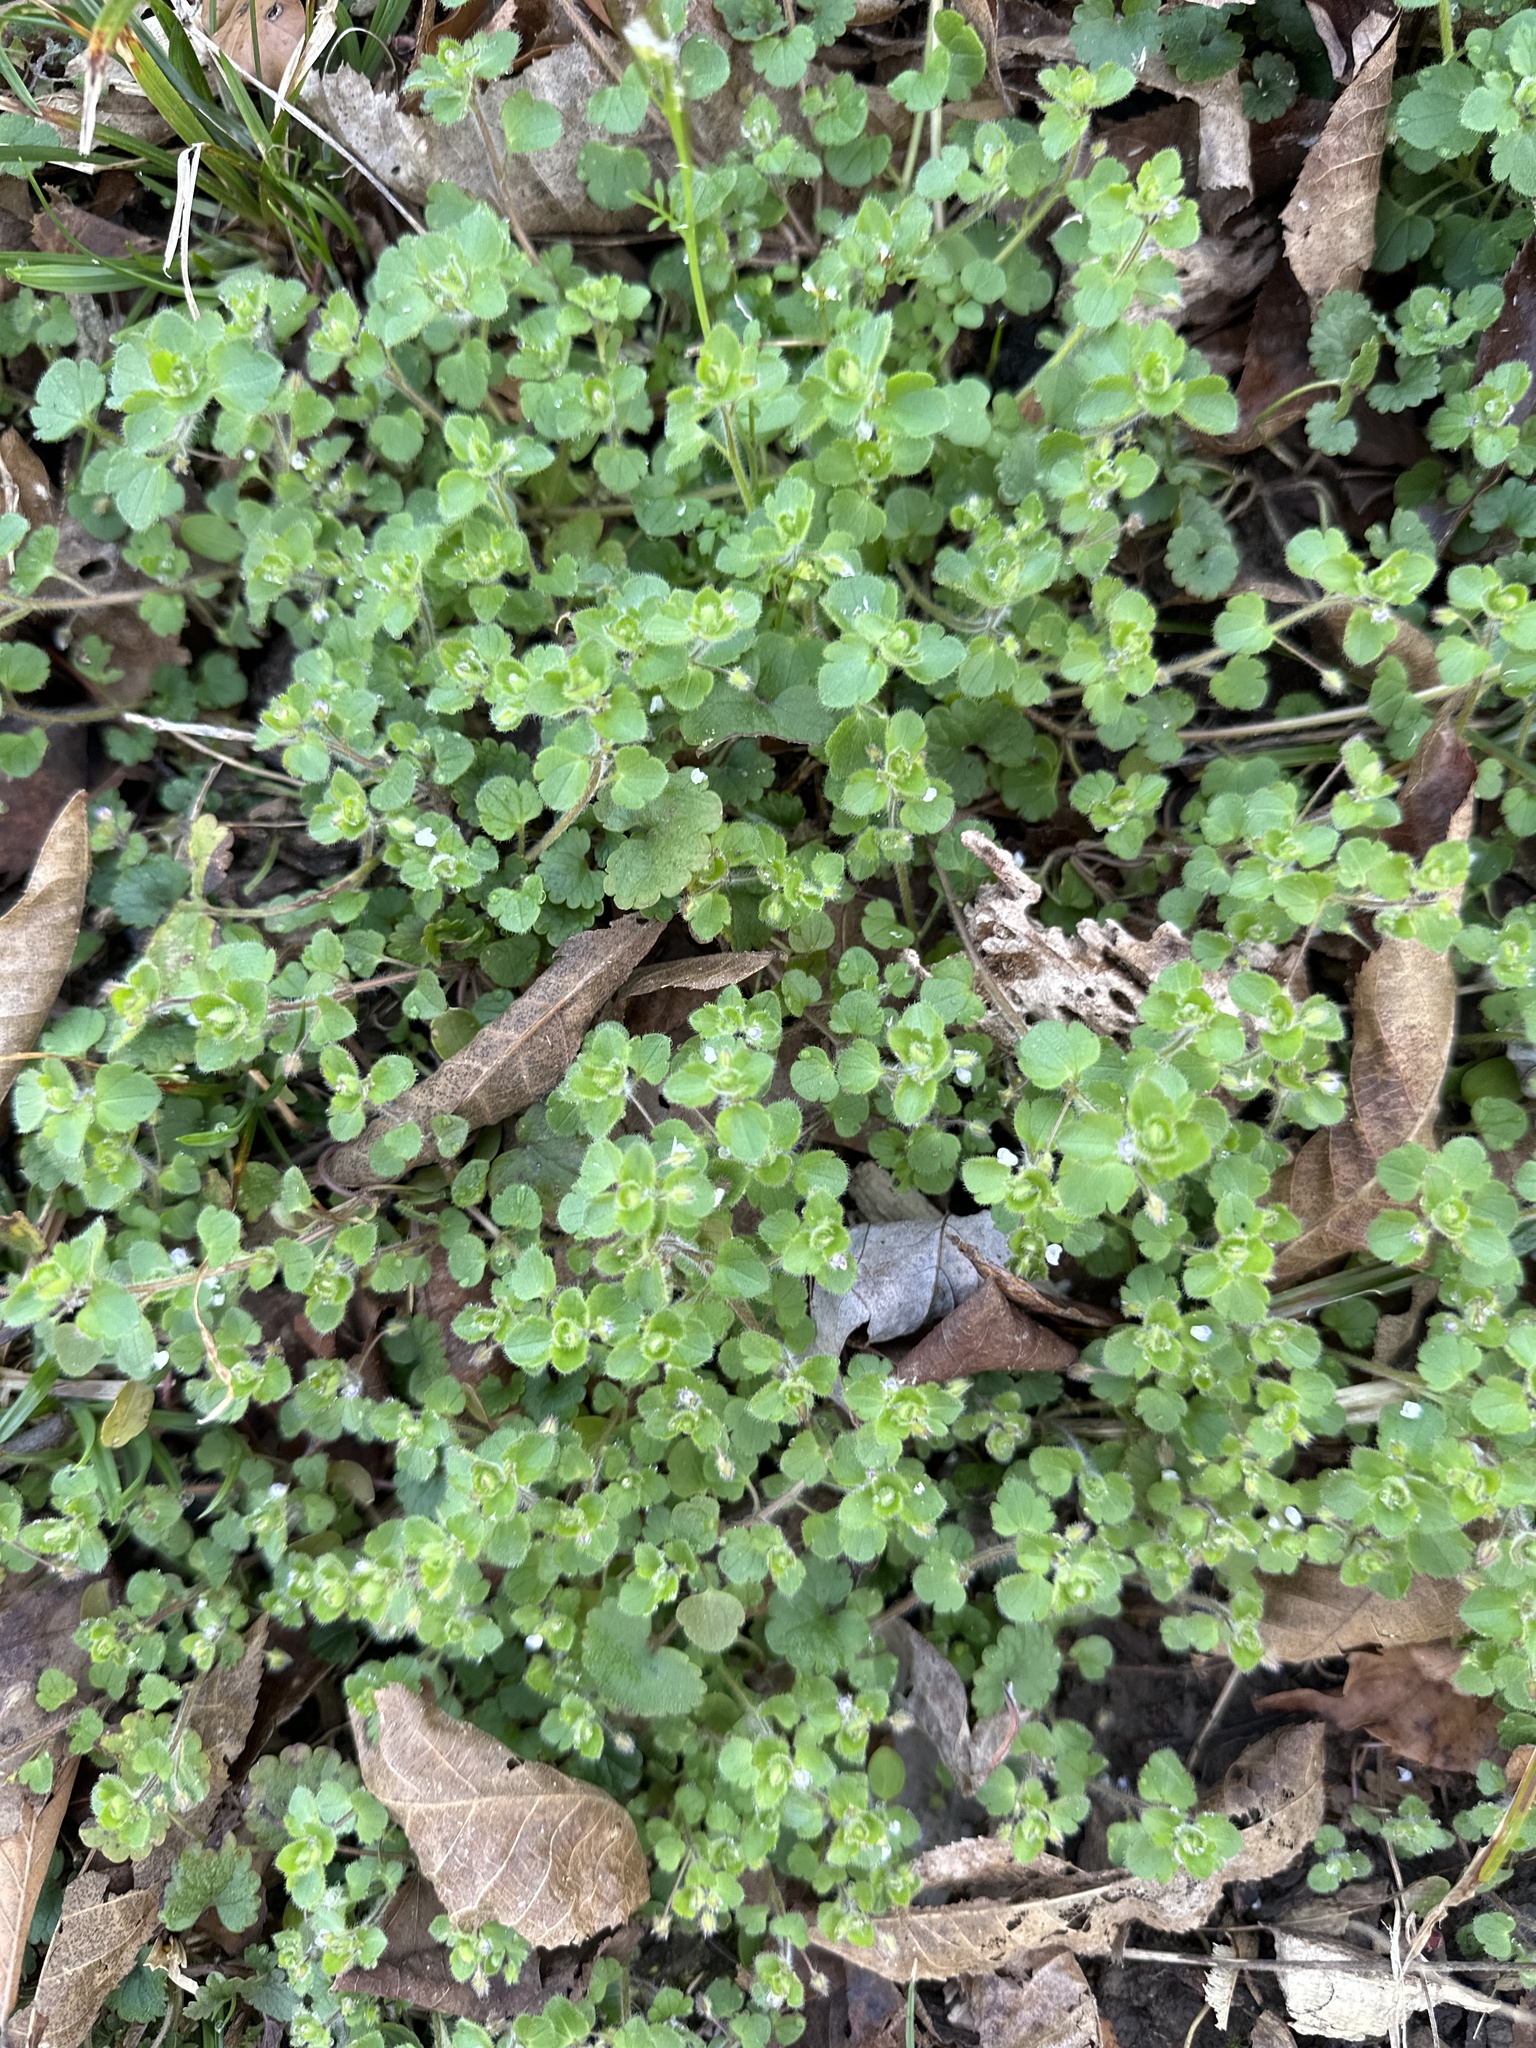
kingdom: Plantae
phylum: Tracheophyta
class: Magnoliopsida
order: Lamiales
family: Plantaginaceae
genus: Veronica
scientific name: Veronica hederifolia
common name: Ivy-leaved speedwell
